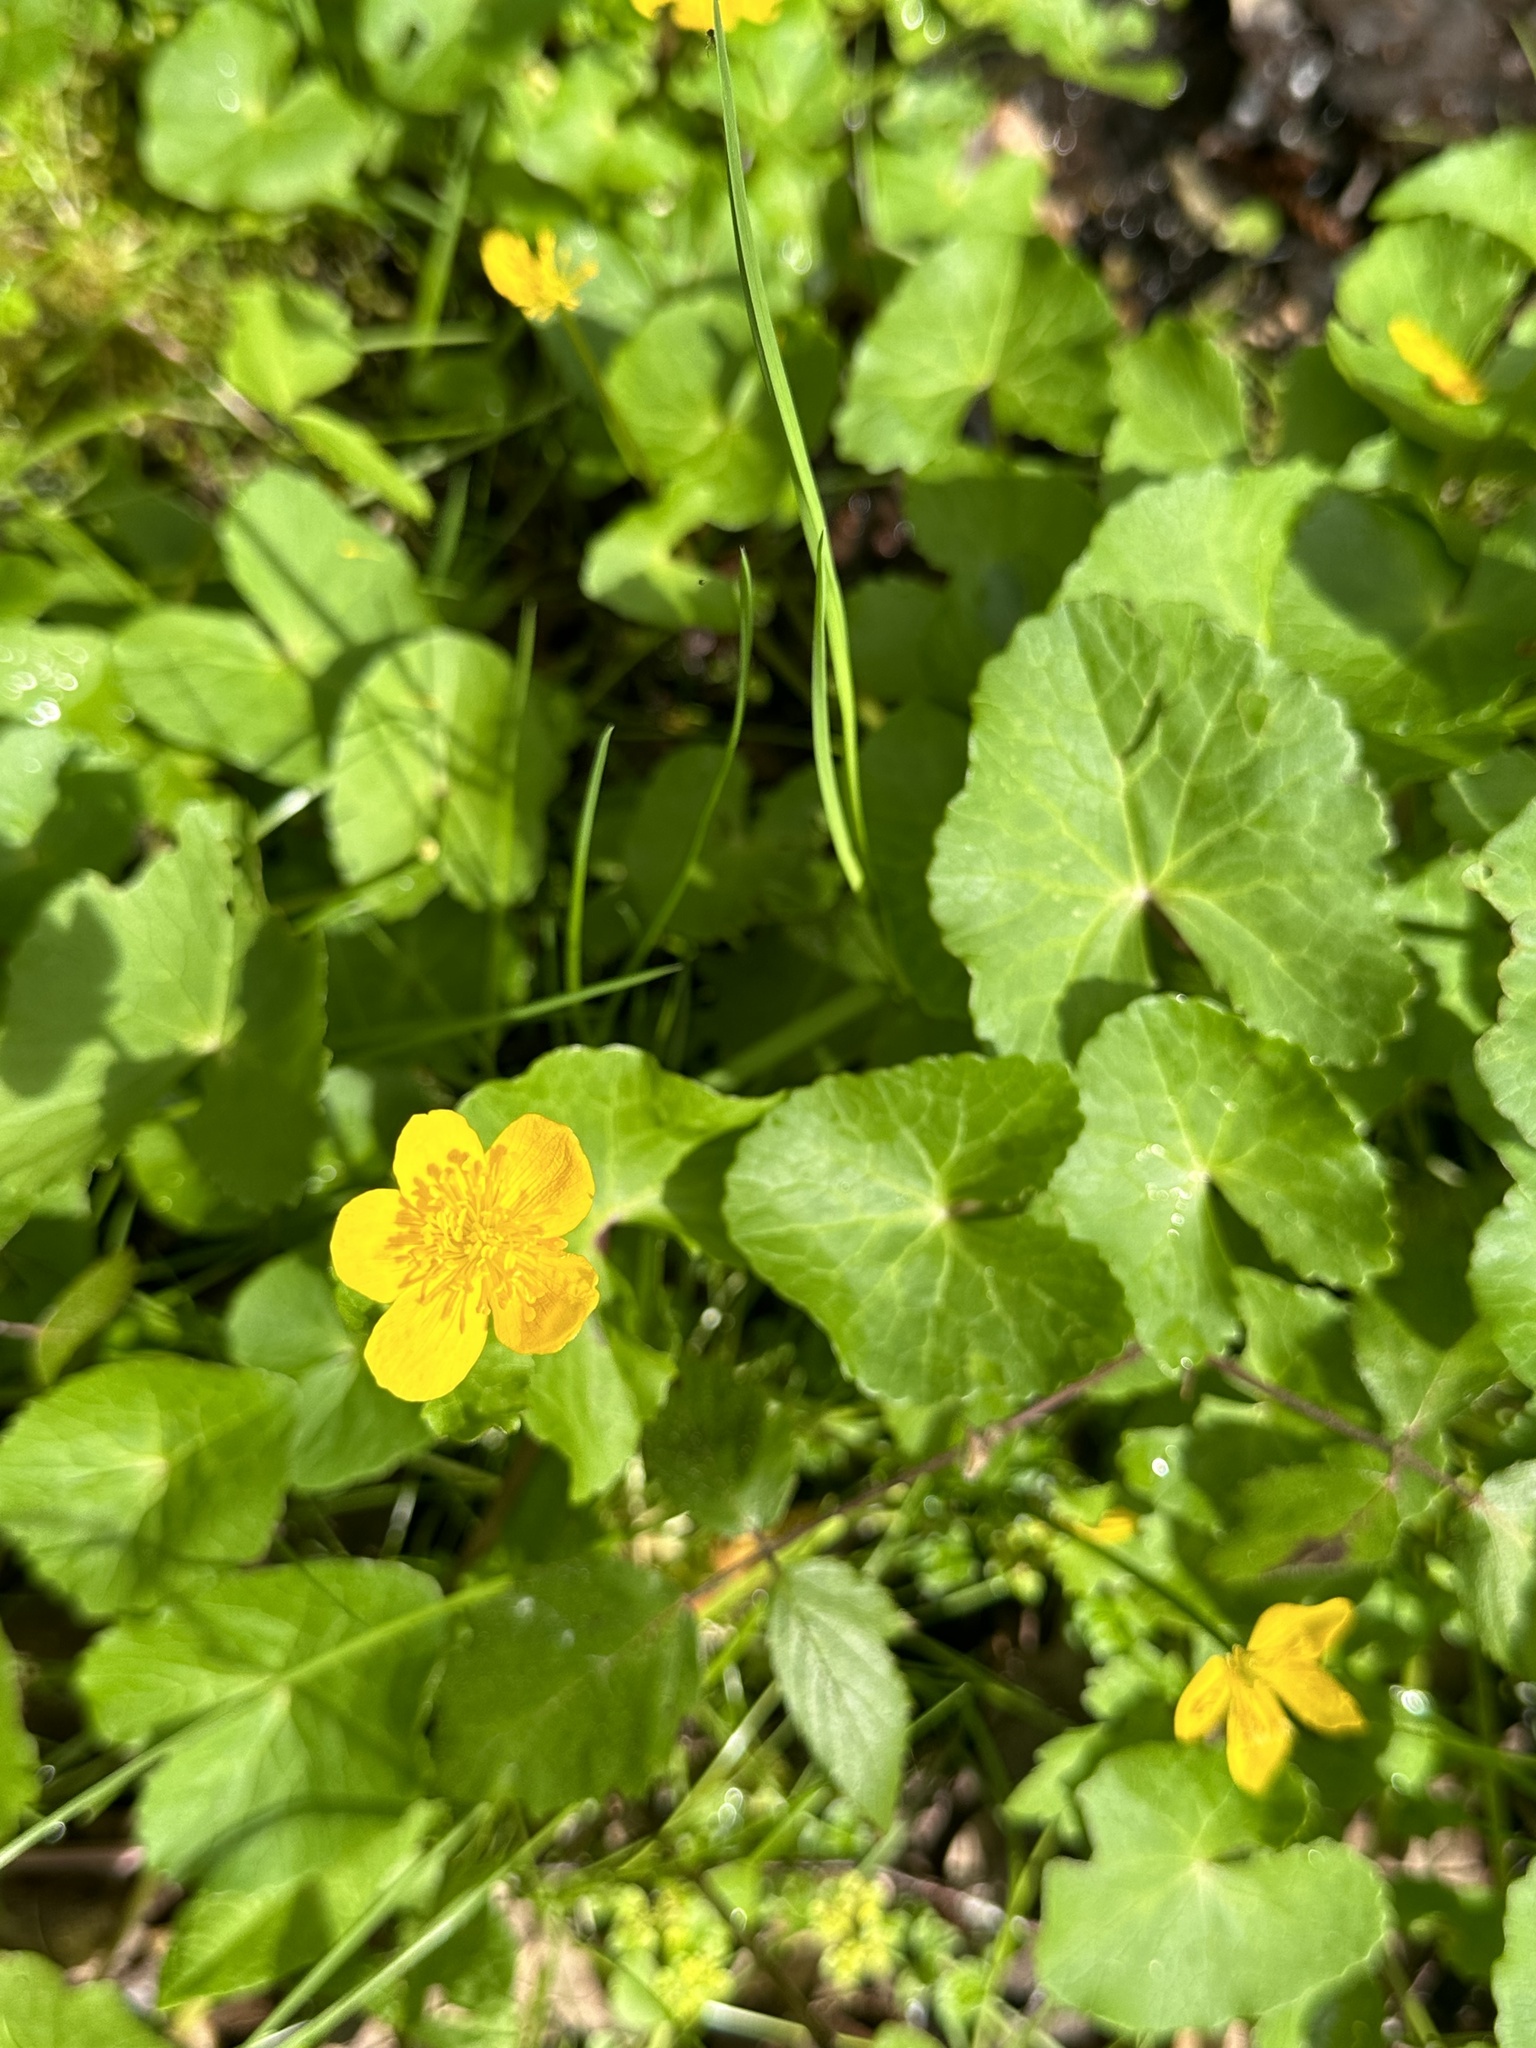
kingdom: Plantae
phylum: Tracheophyta
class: Magnoliopsida
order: Ranunculales
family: Ranunculaceae
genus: Caltha
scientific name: Caltha palustris
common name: Marsh marigold
